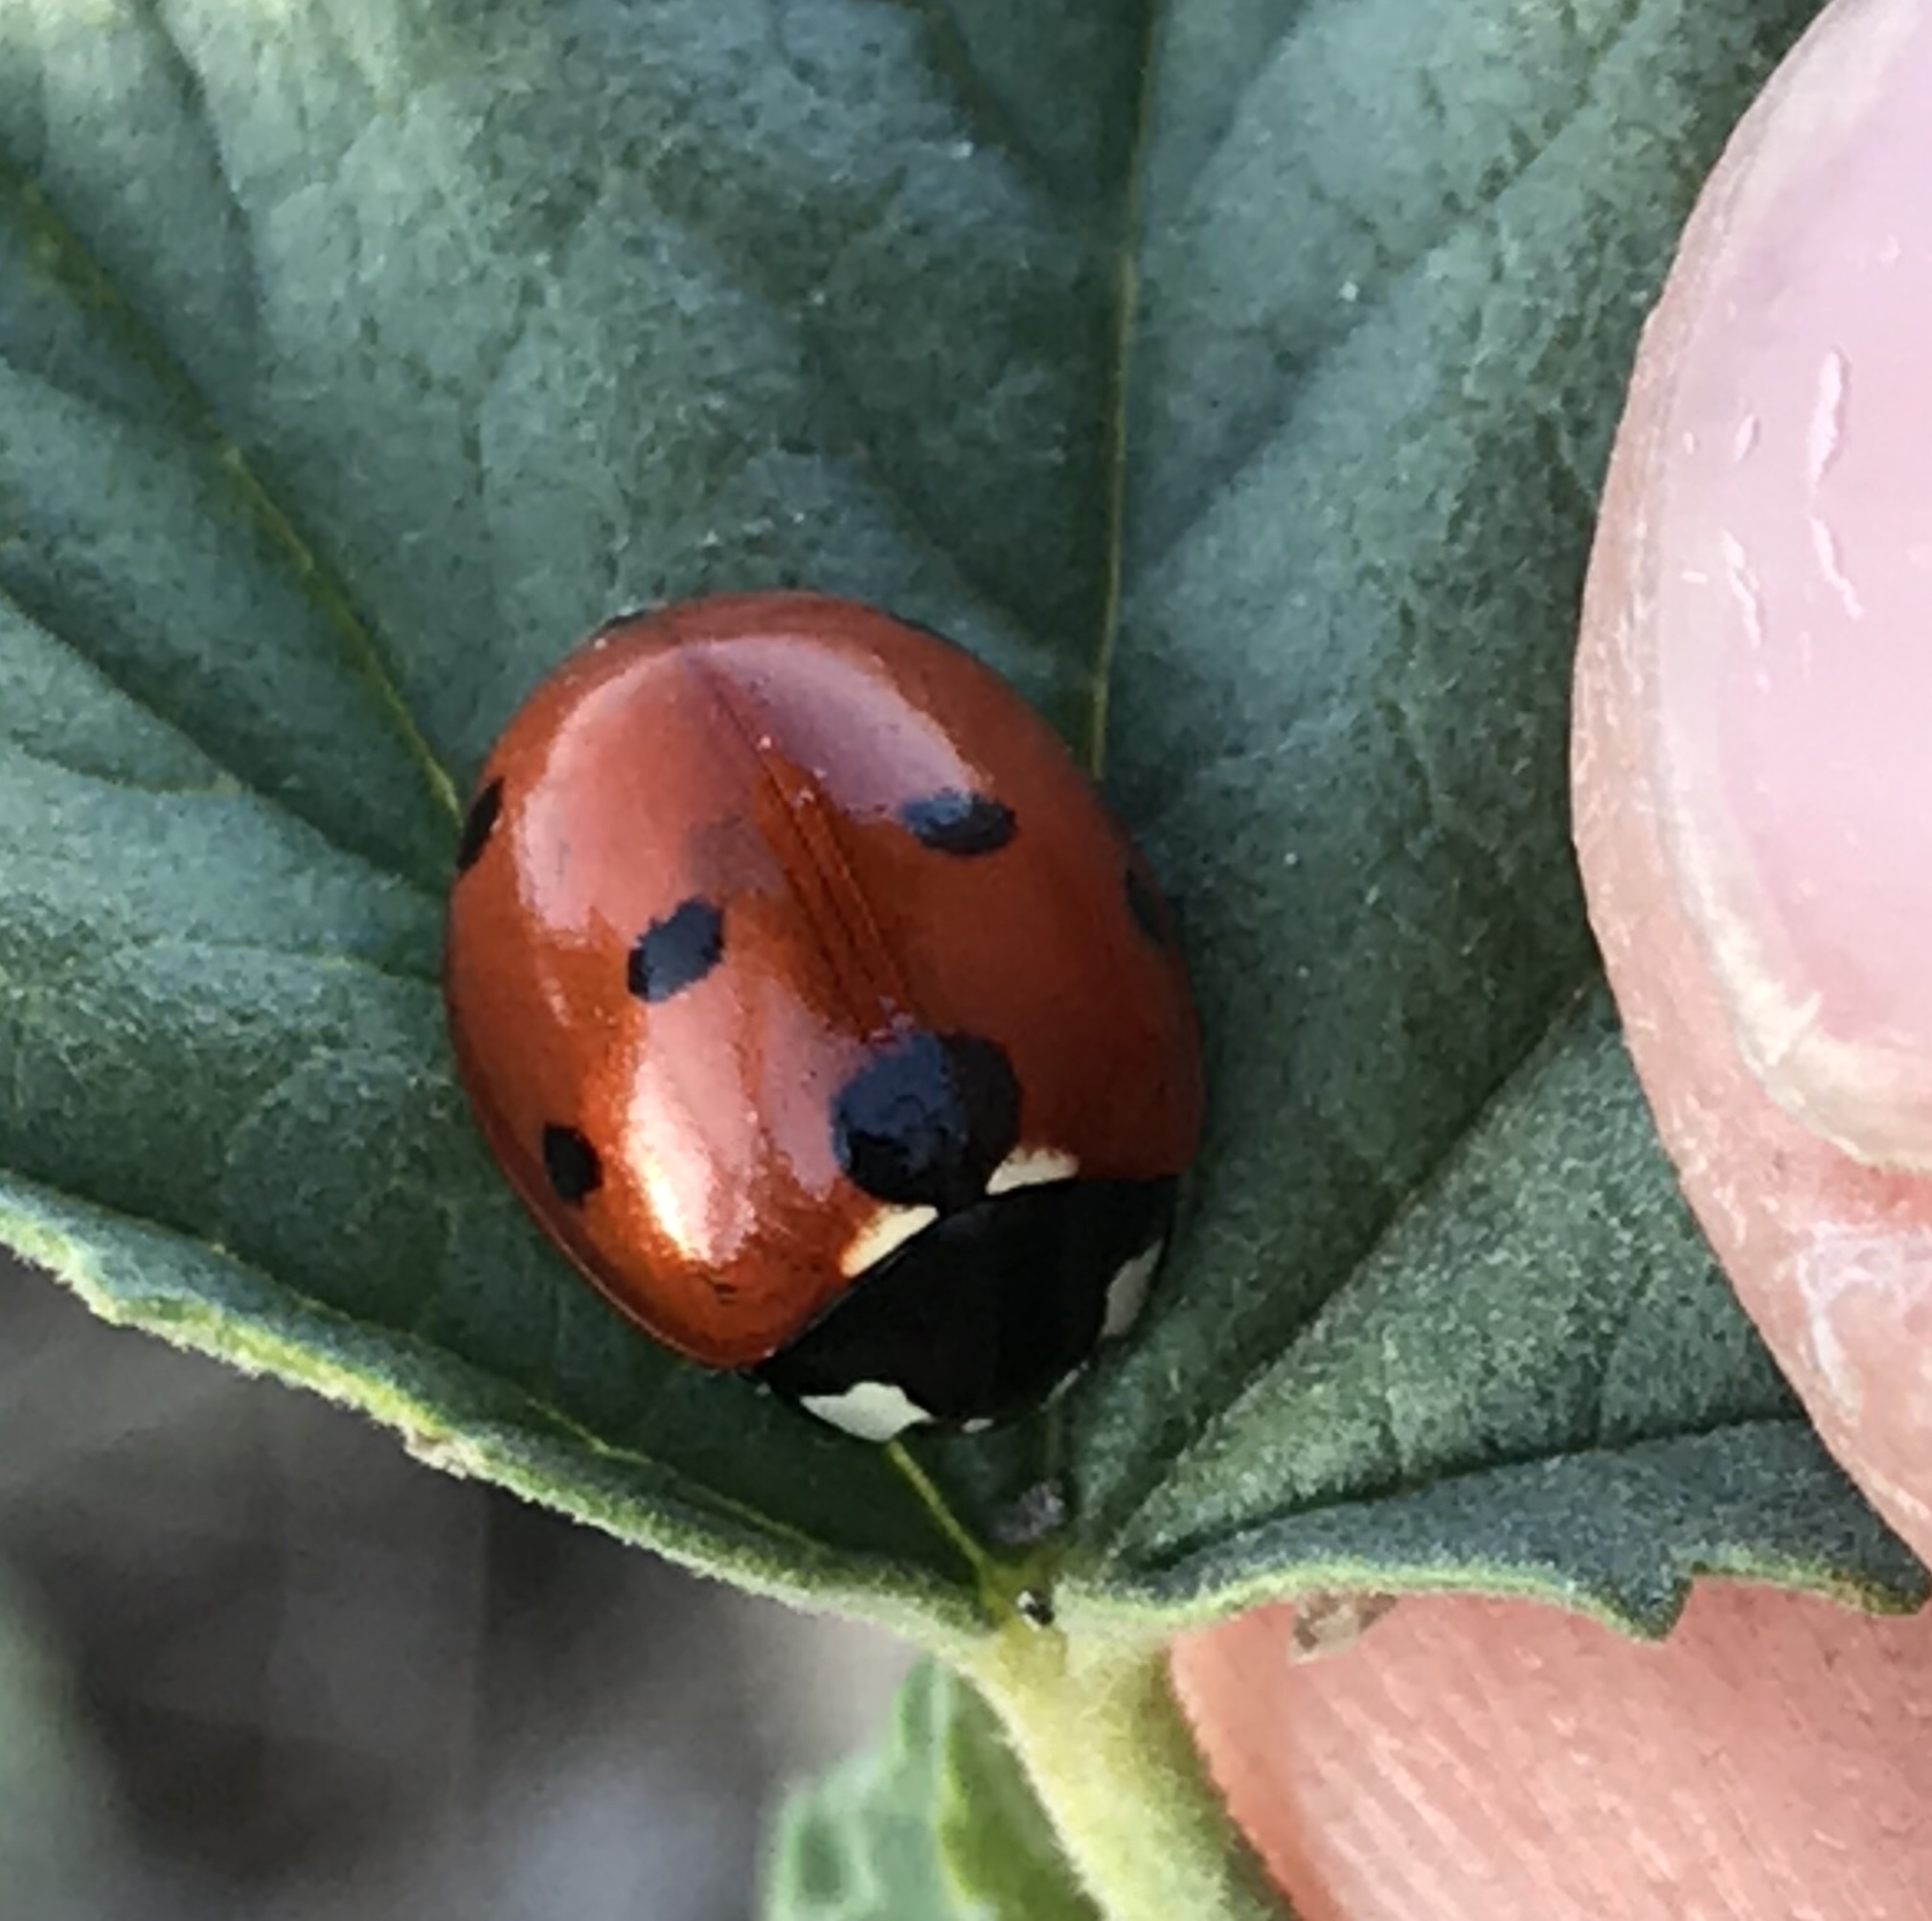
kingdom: Animalia
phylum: Arthropoda
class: Insecta
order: Coleoptera
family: Coccinellidae
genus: Coccinella
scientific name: Coccinella septempunctata
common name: Sevenspotted lady beetle
